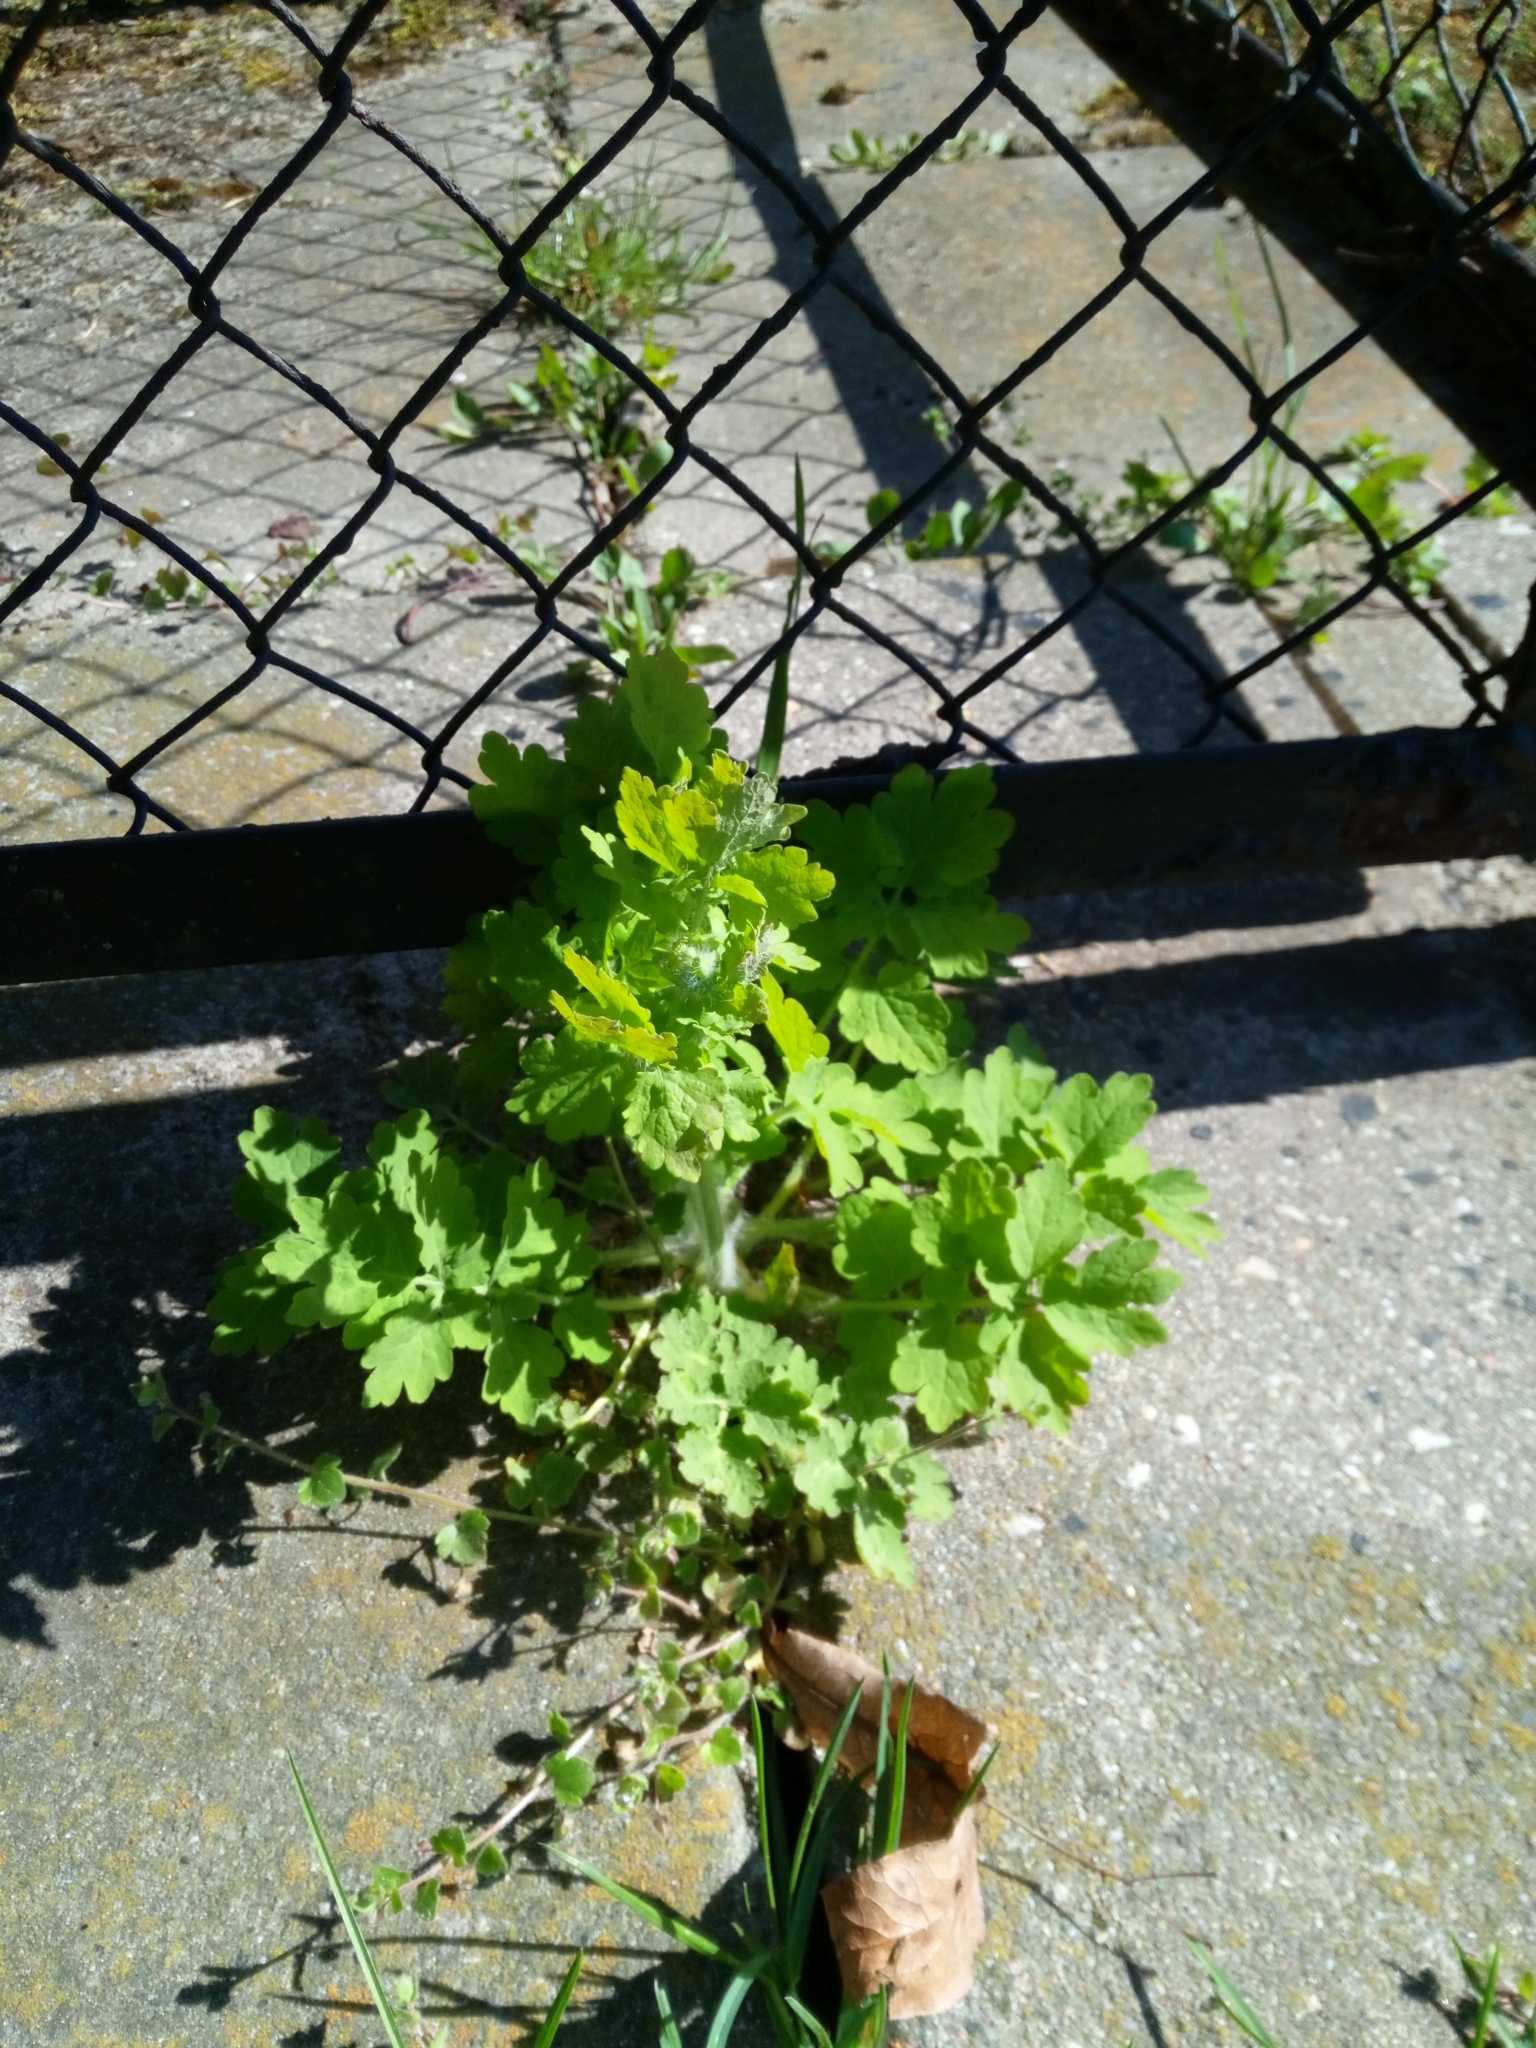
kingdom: Plantae
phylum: Tracheophyta
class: Magnoliopsida
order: Ranunculales
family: Papaveraceae
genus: Chelidonium
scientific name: Chelidonium majus
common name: Greater celandine
